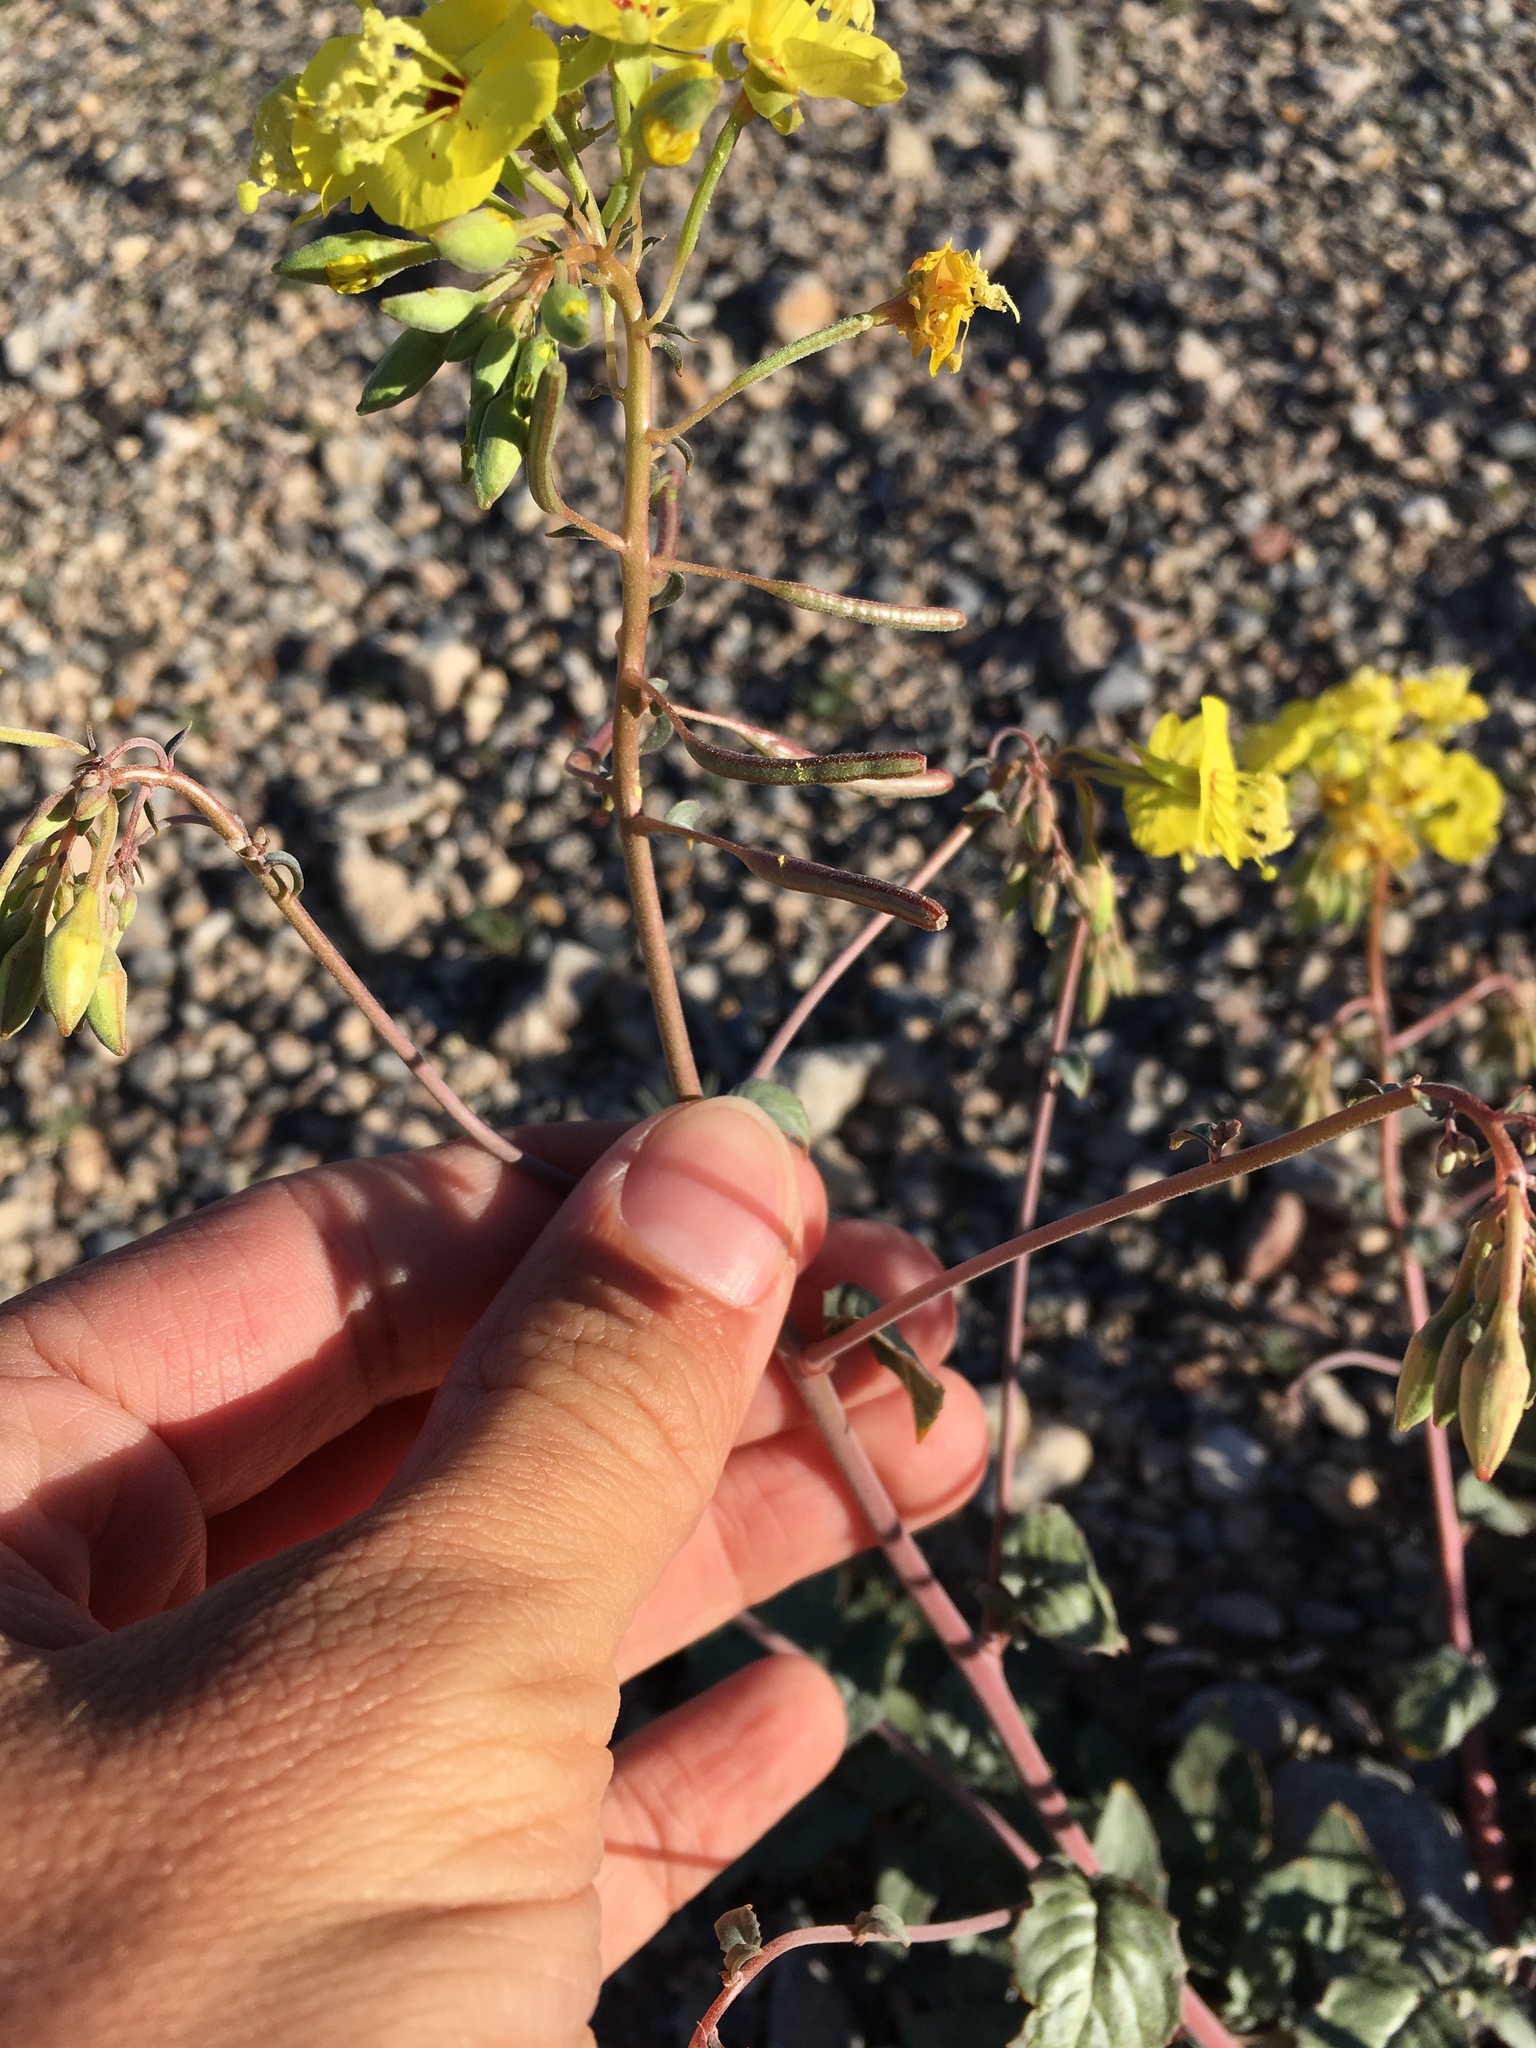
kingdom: Plantae
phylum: Tracheophyta
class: Magnoliopsida
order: Myrtales
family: Onagraceae
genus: Chylismia
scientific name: Chylismia munzii
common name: Death valley suncup
